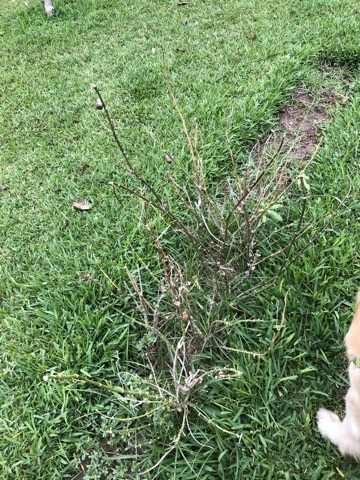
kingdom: Animalia
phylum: Arthropoda
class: Insecta
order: Lepidoptera
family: Nymphalidae
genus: Danaus
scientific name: Danaus plexippus
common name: Monarch
